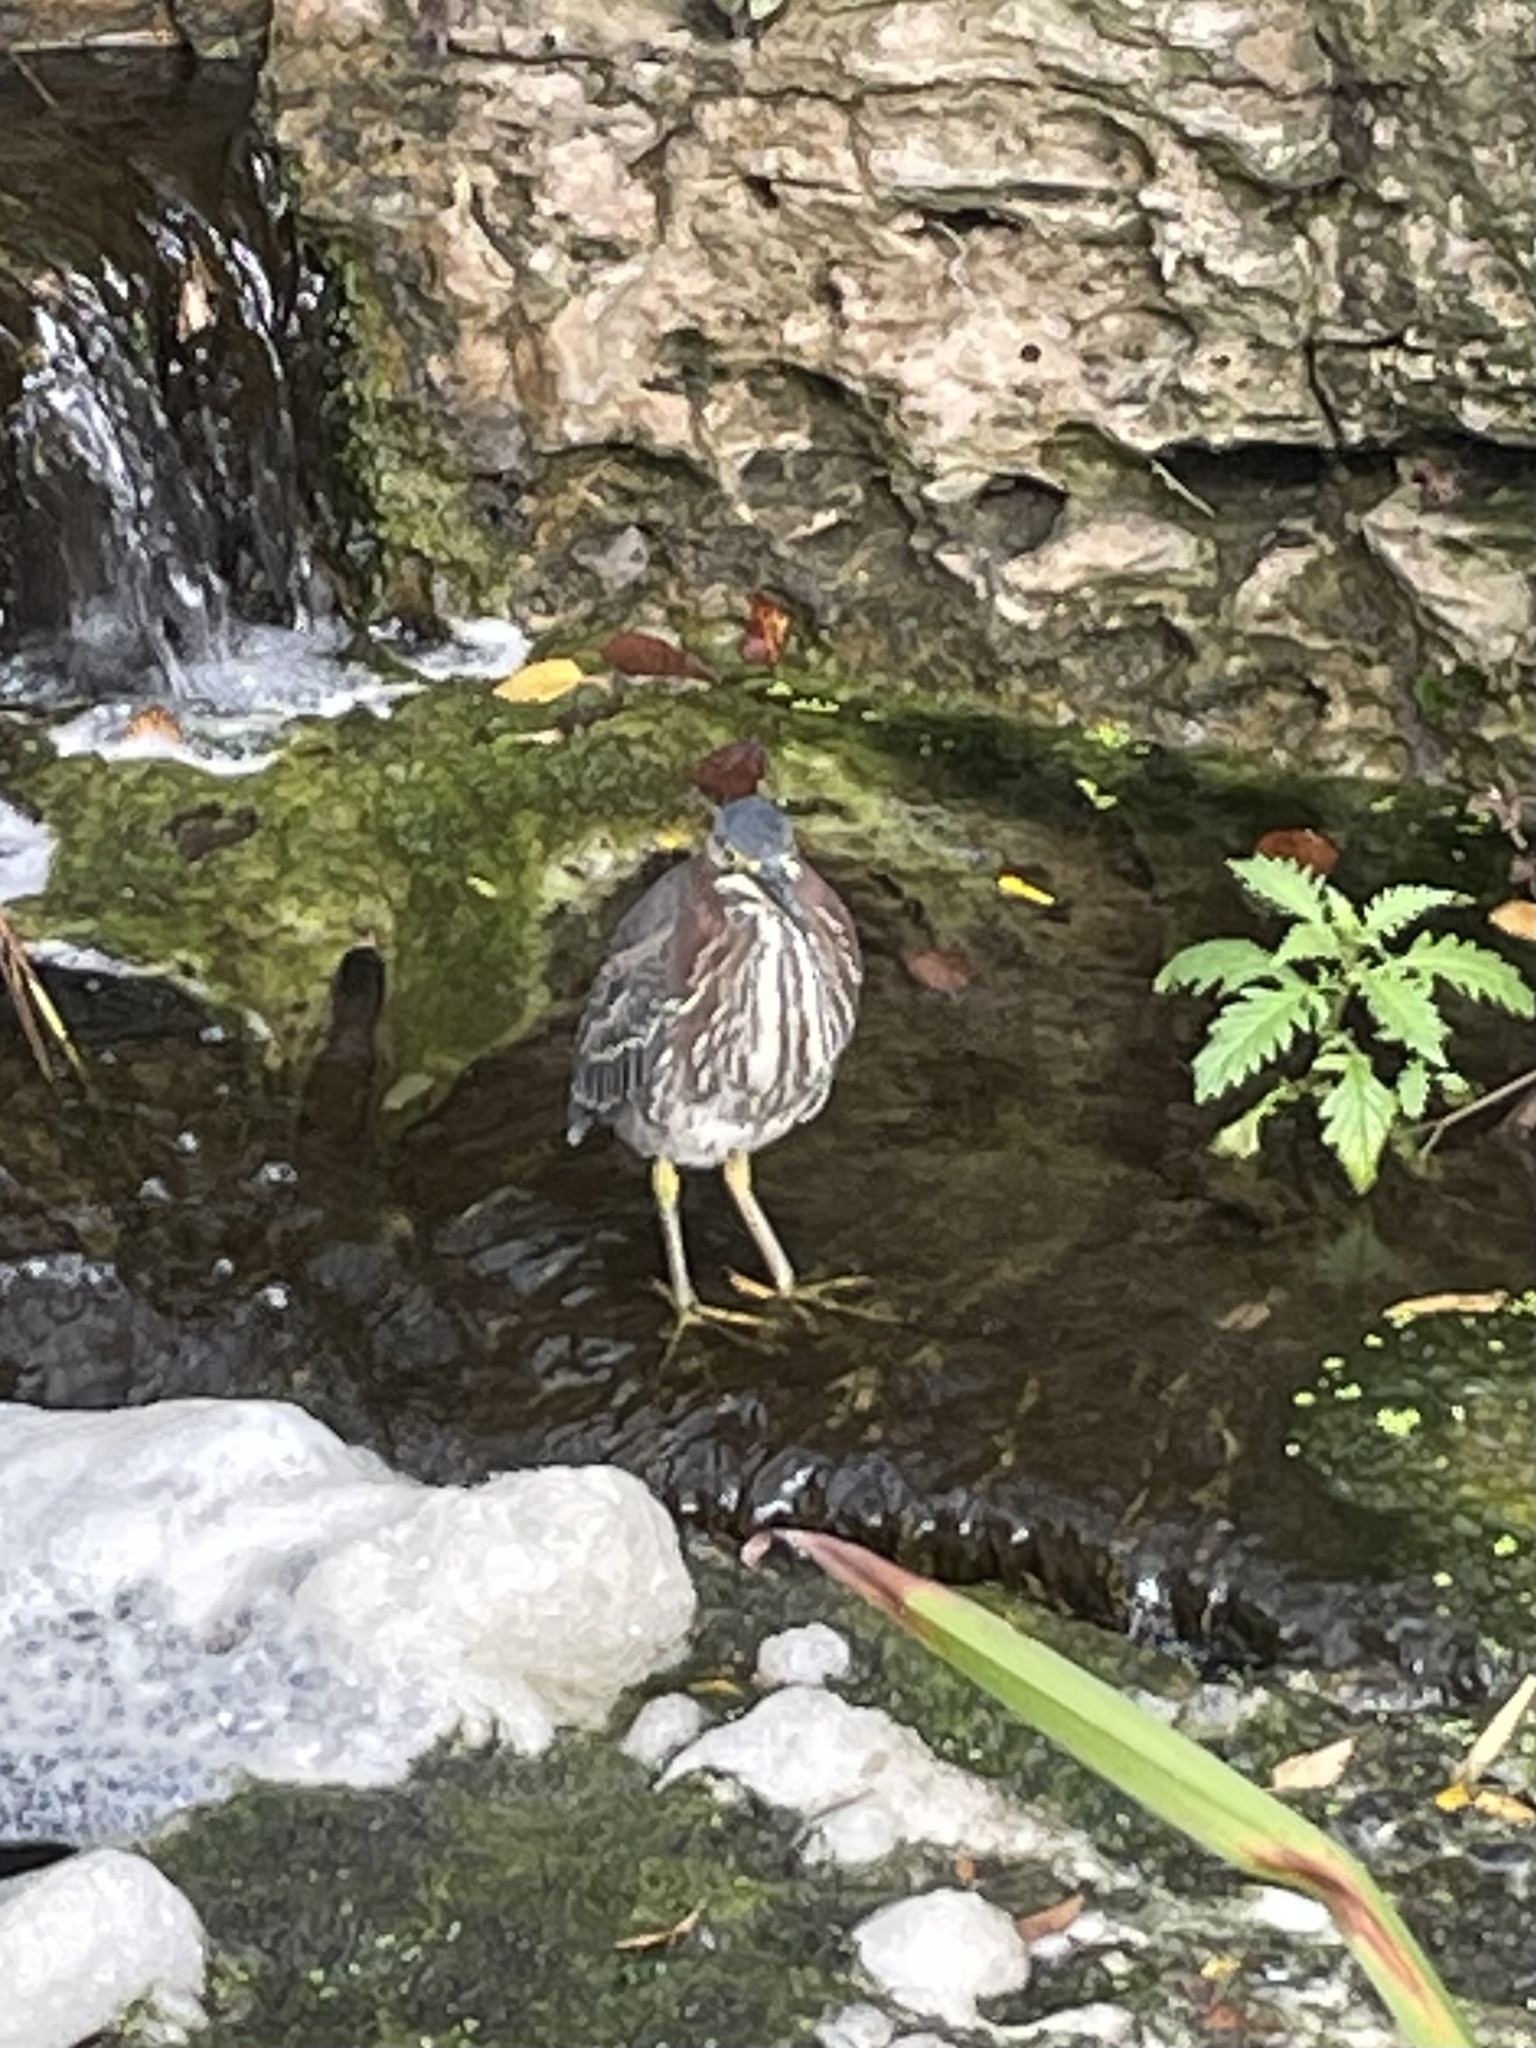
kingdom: Animalia
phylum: Chordata
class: Aves
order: Pelecaniformes
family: Ardeidae
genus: Butorides
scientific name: Butorides virescens
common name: Green heron
